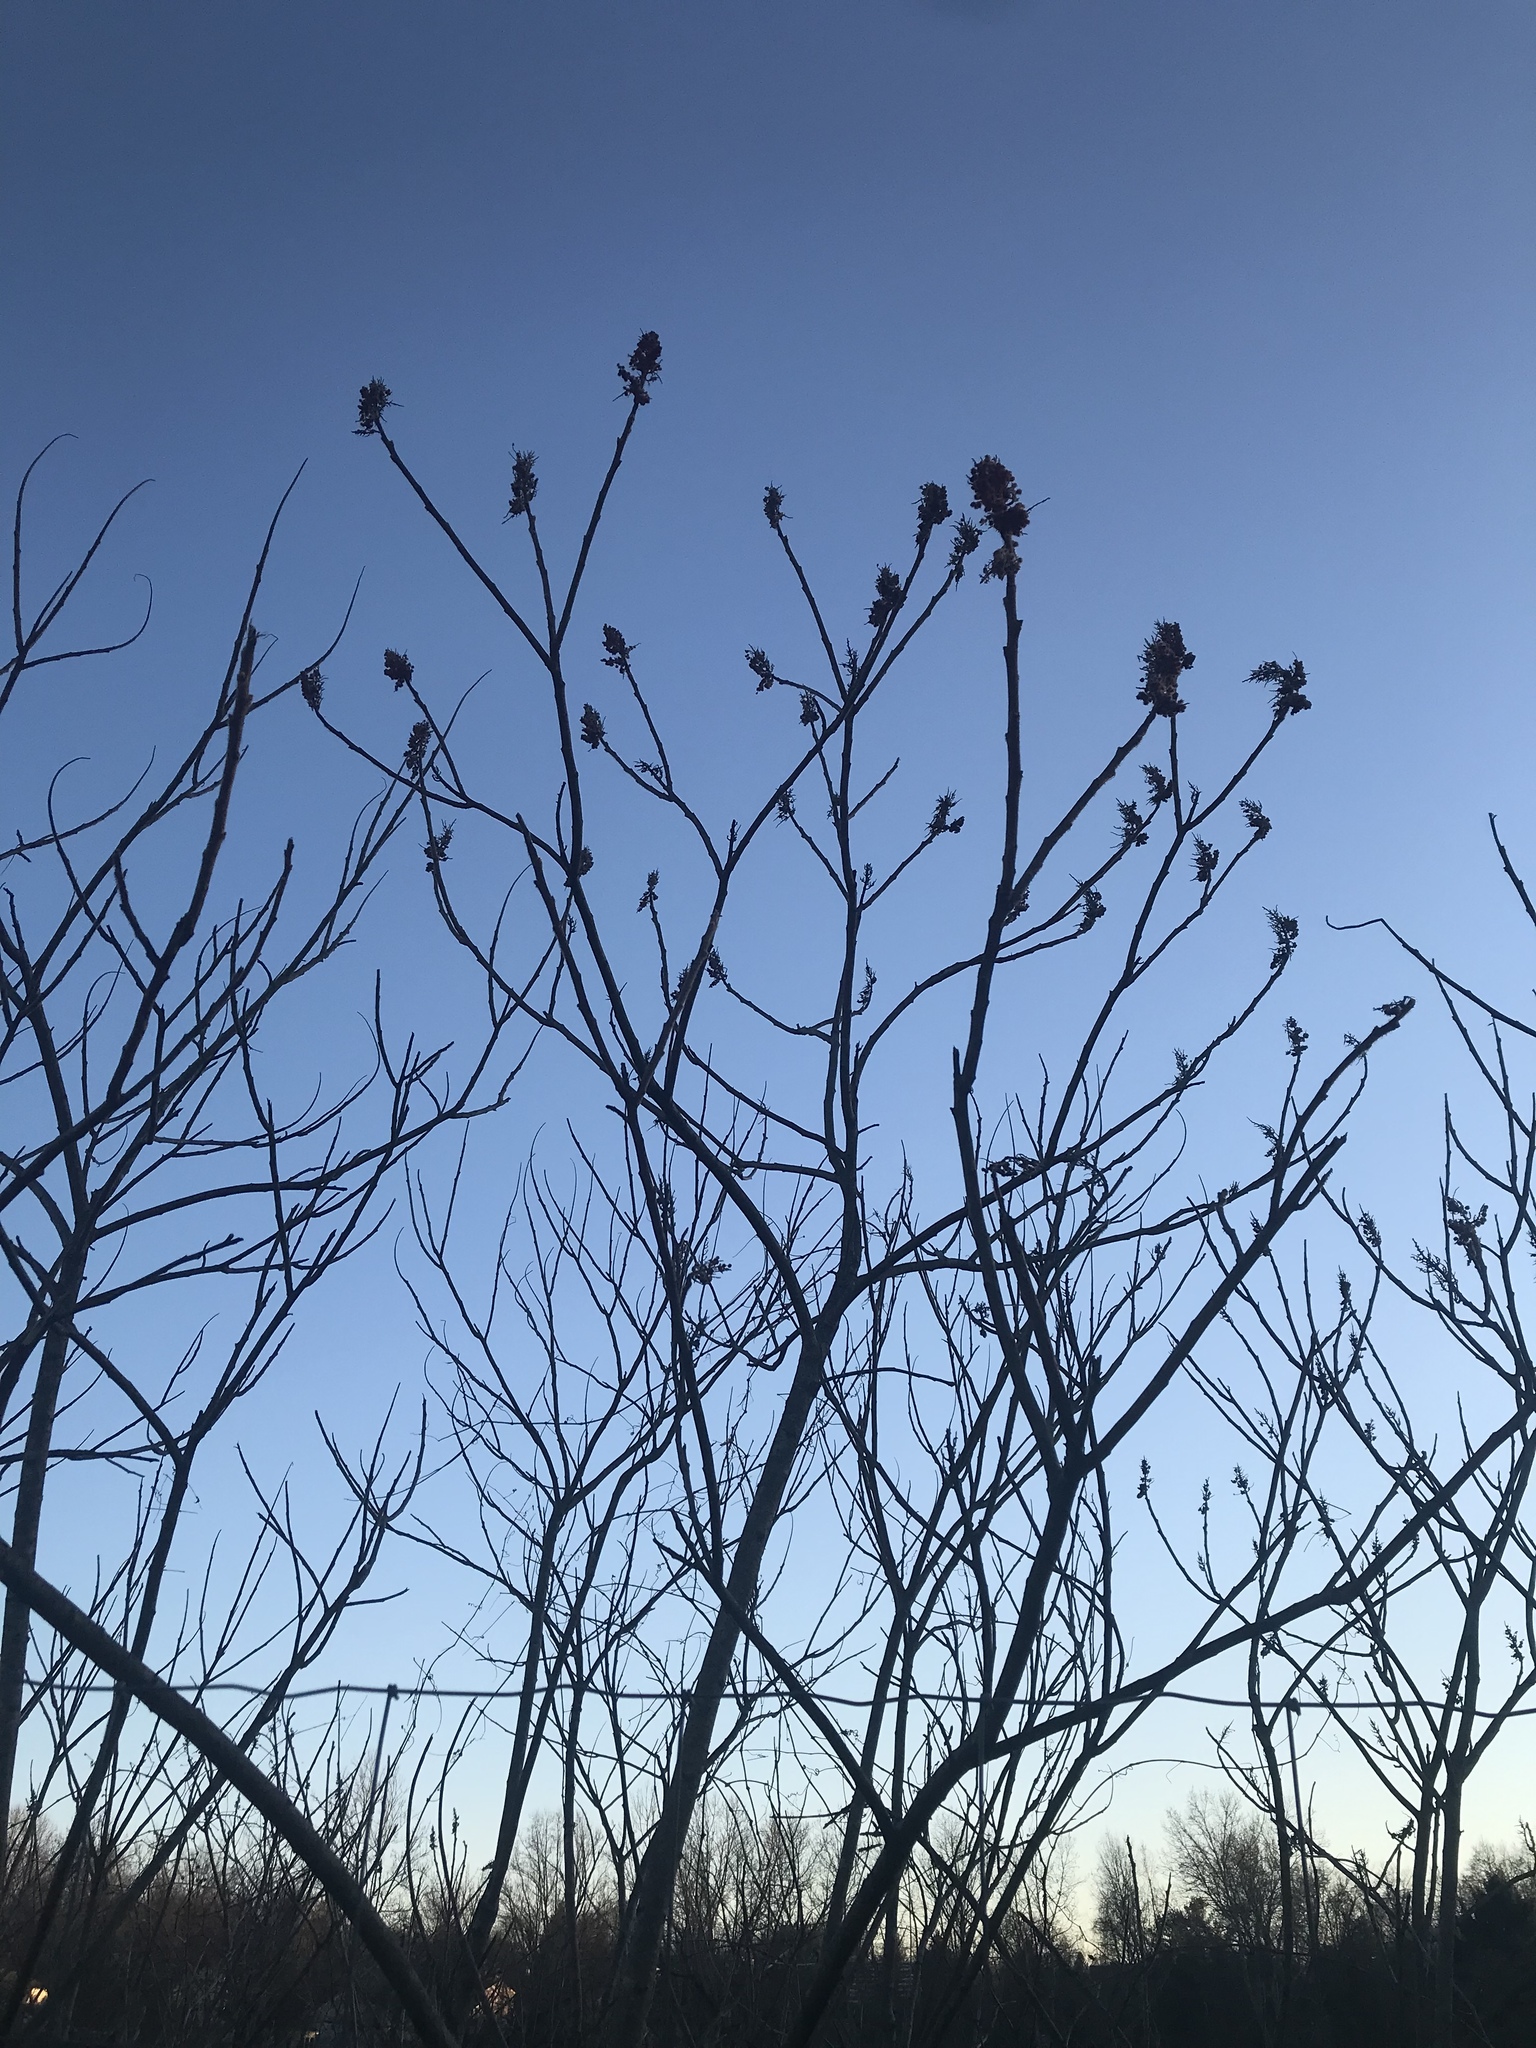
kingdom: Plantae
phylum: Tracheophyta
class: Magnoliopsida
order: Sapindales
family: Anacardiaceae
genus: Rhus
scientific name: Rhus typhina
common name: Staghorn sumac
